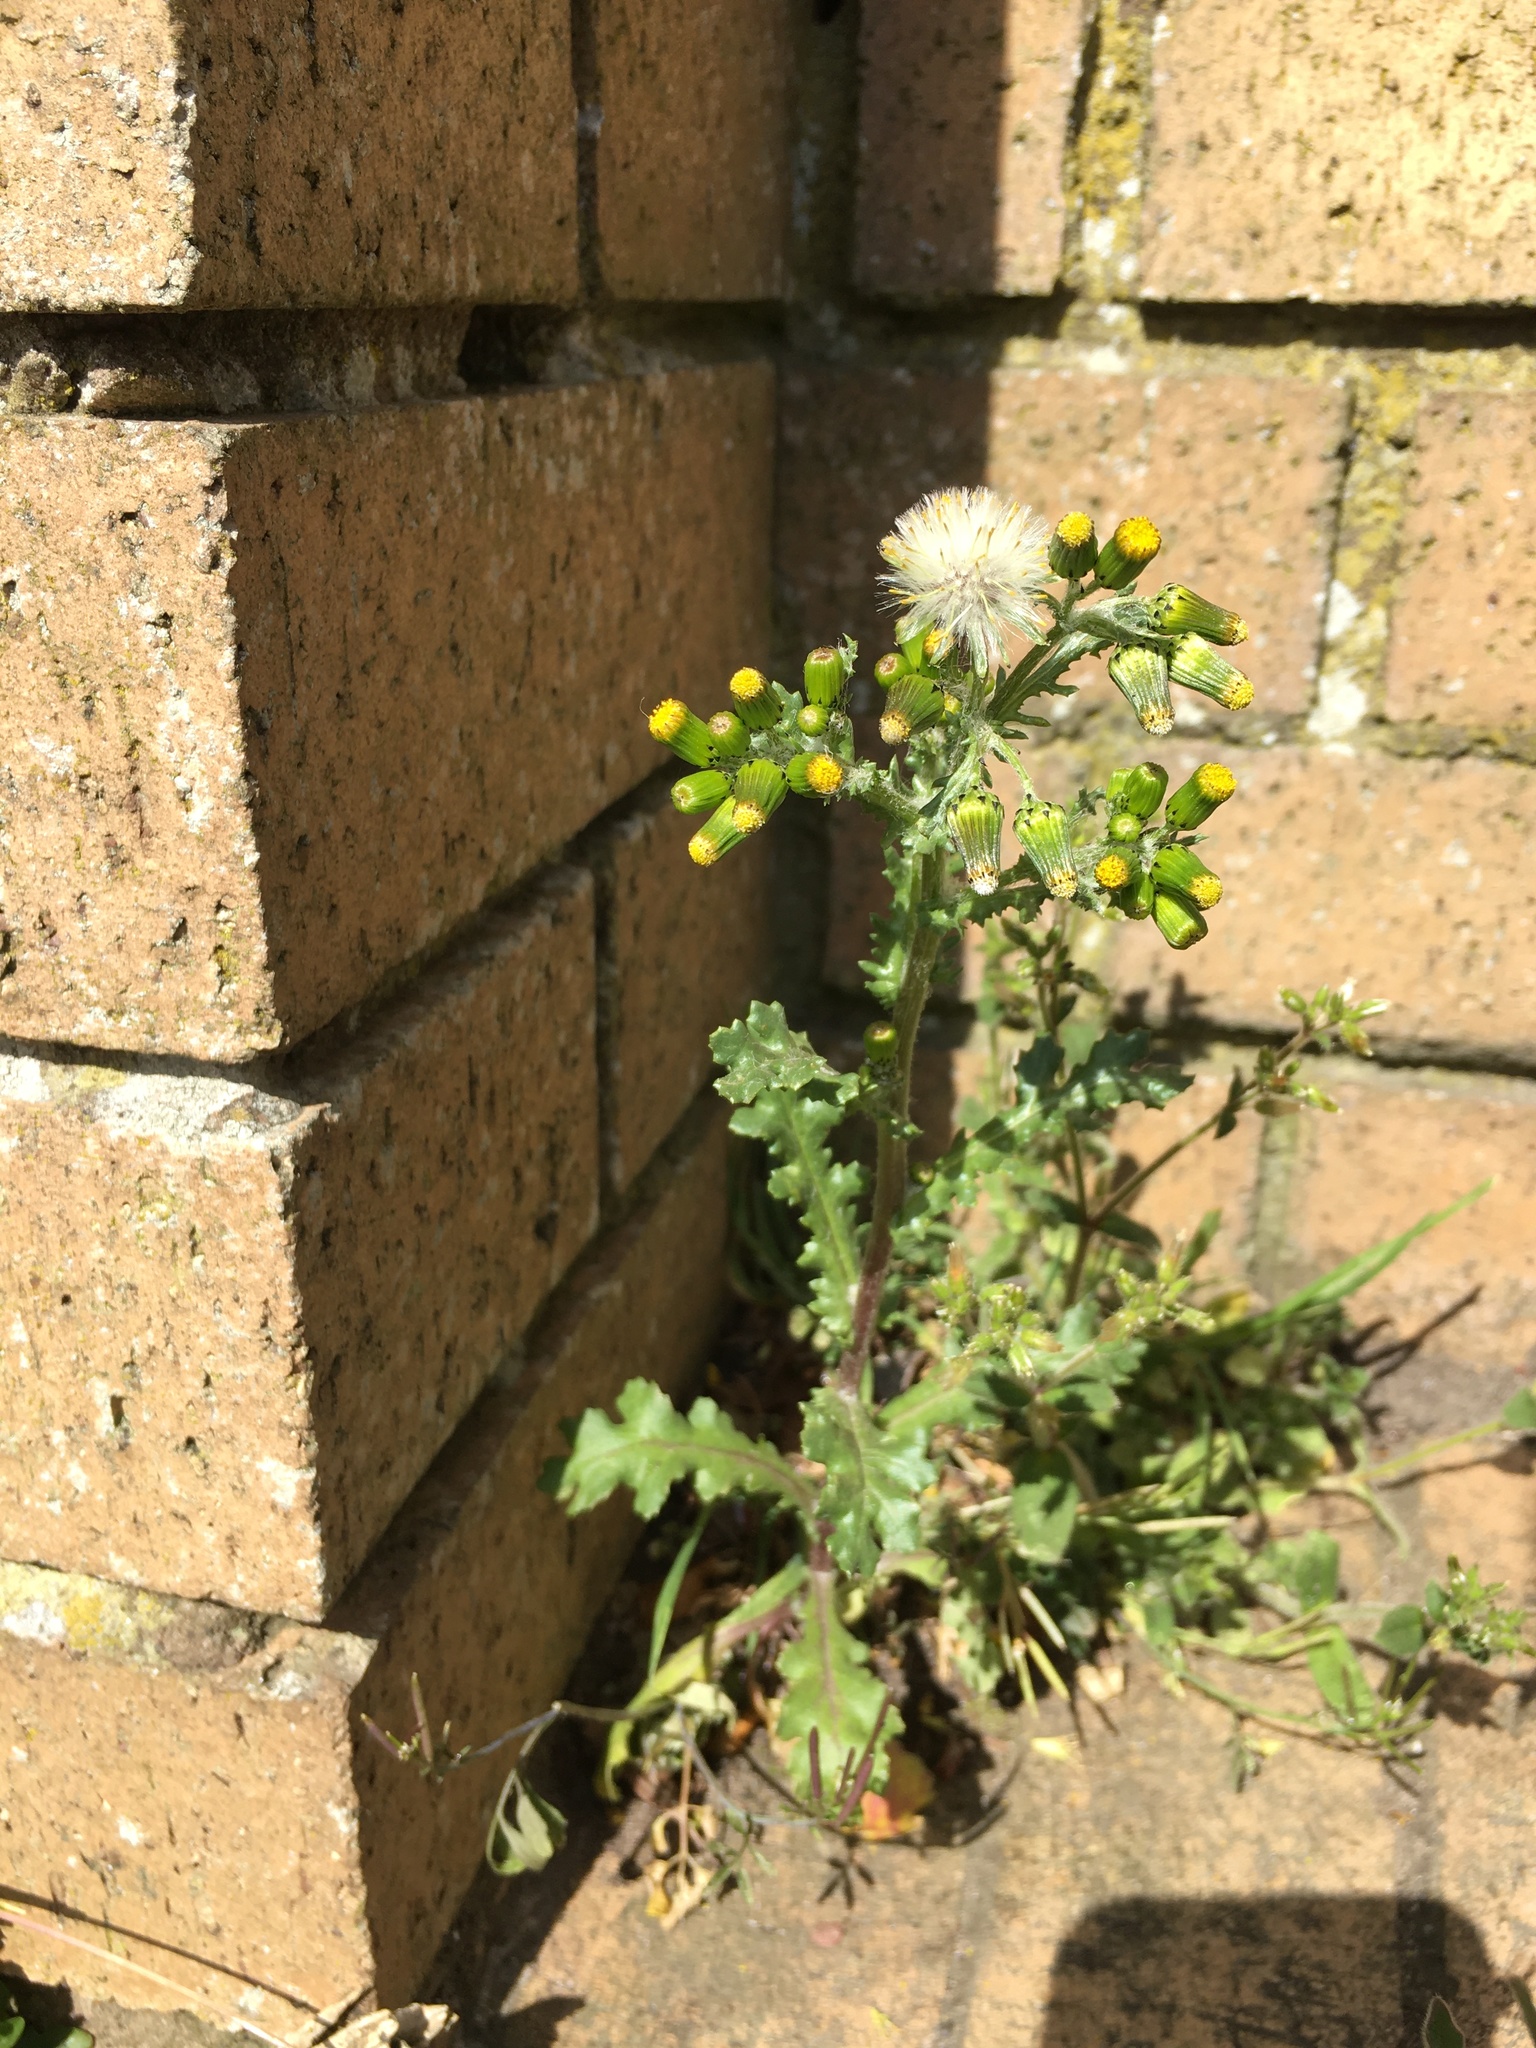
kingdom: Plantae
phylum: Tracheophyta
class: Magnoliopsida
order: Asterales
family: Asteraceae
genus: Senecio
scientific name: Senecio vulgaris
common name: Old-man-in-the-spring
